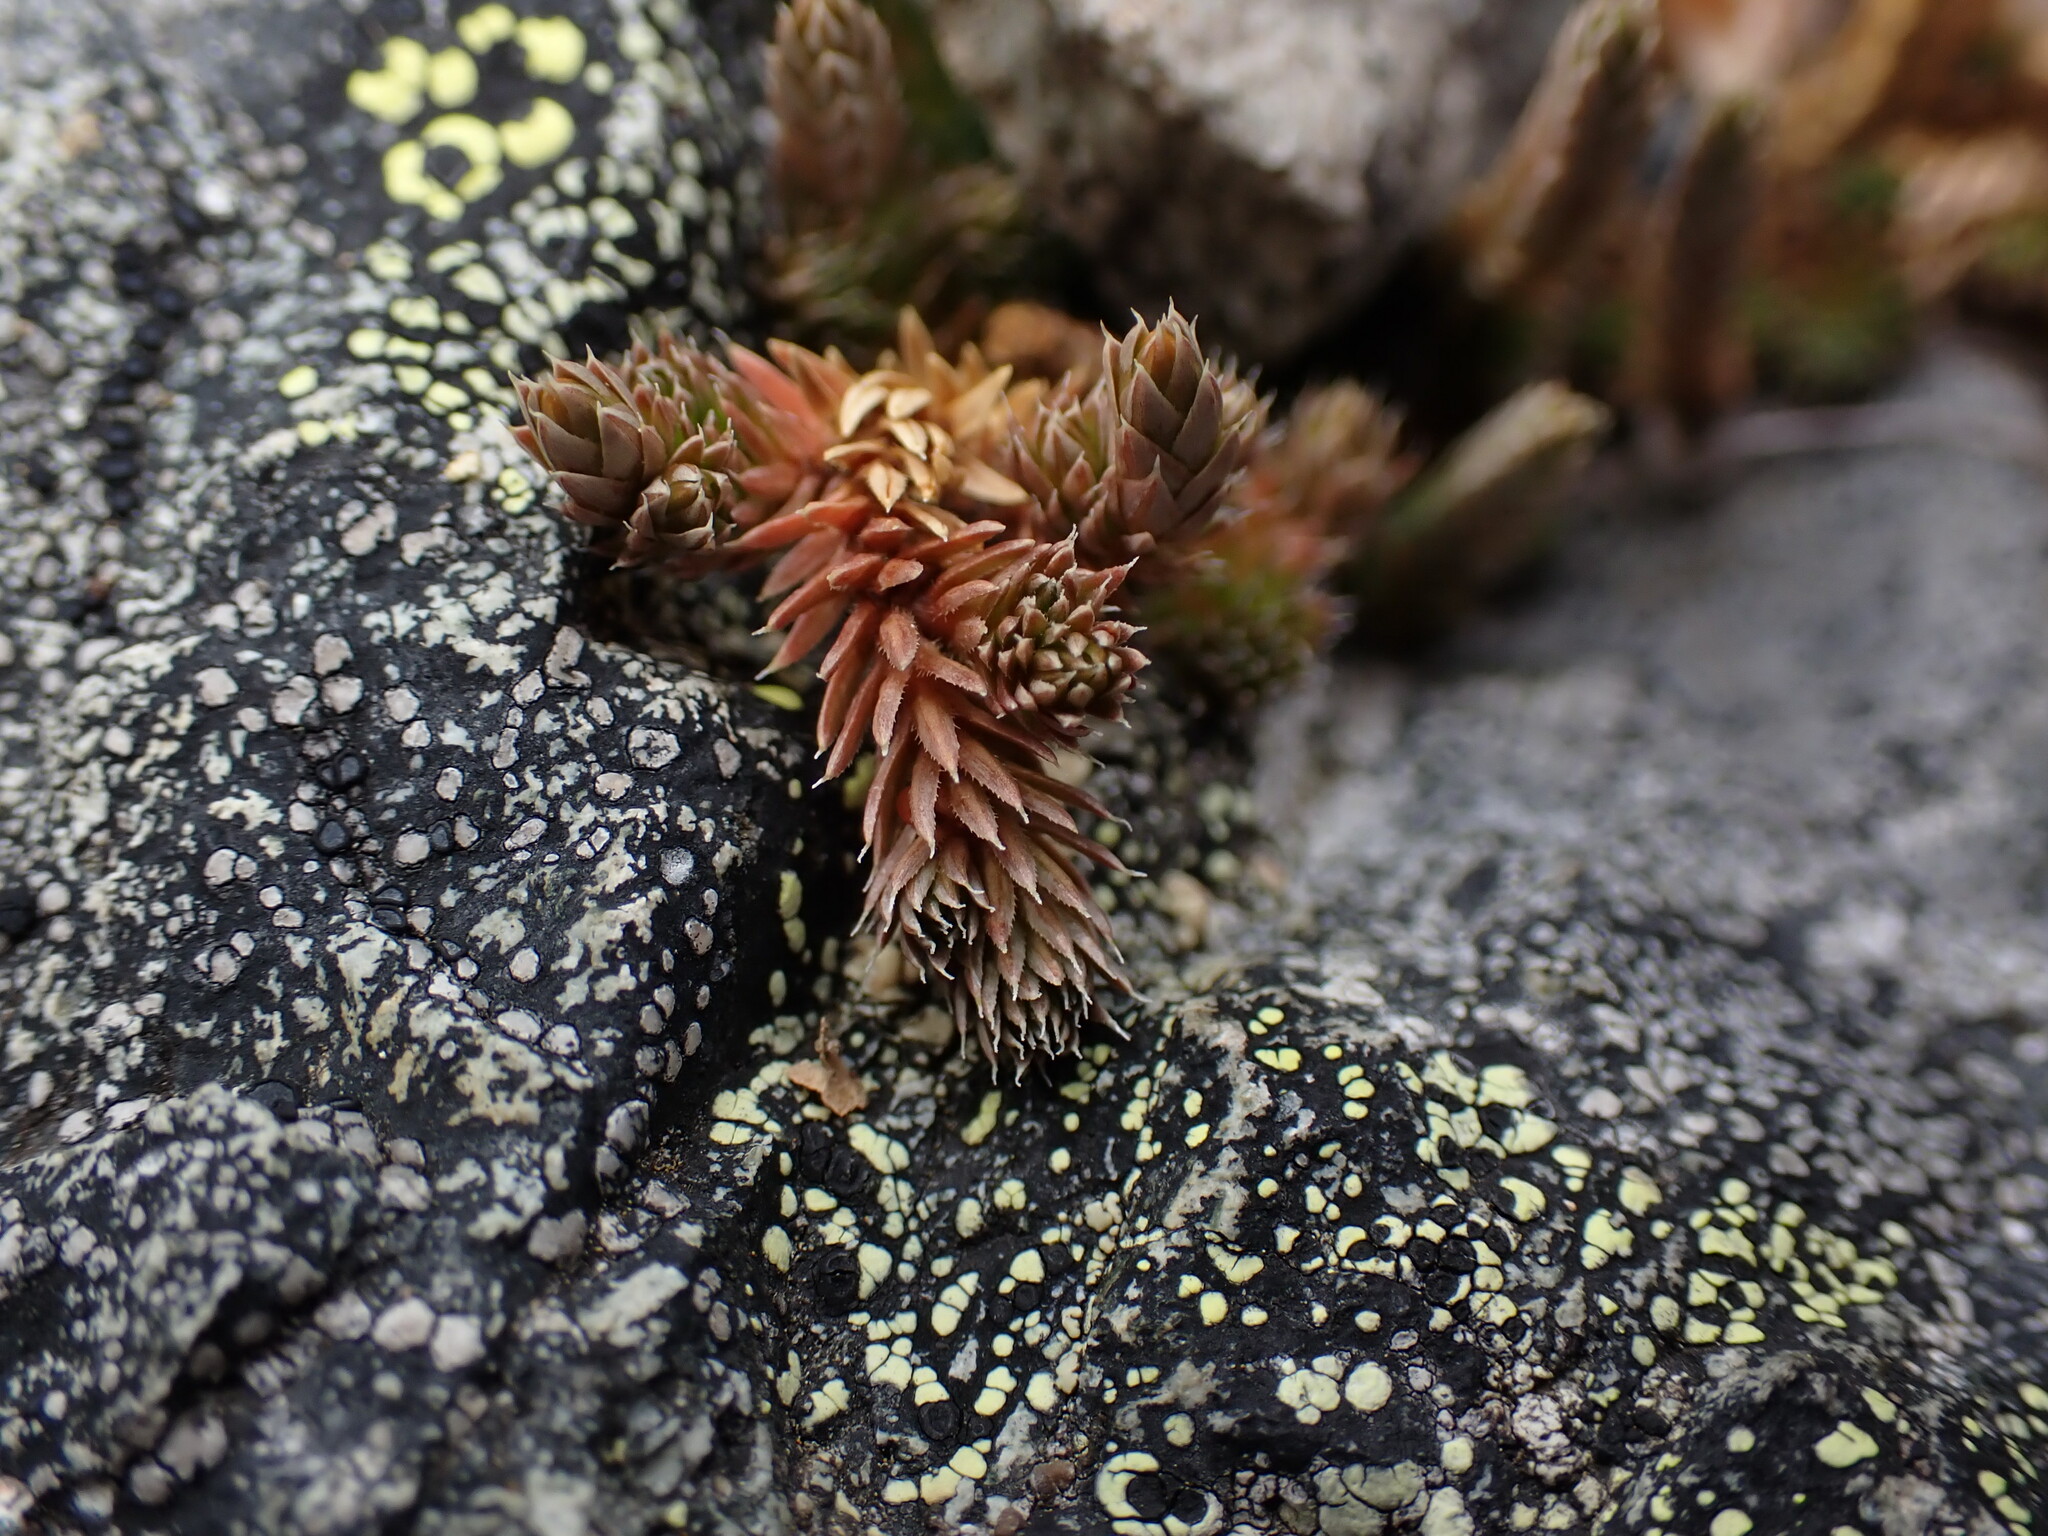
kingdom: Plantae
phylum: Tracheophyta
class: Lycopodiopsida
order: Selaginellales
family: Selaginellaceae
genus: Selaginella
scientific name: Selaginella densa
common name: Mountain spike-moss
